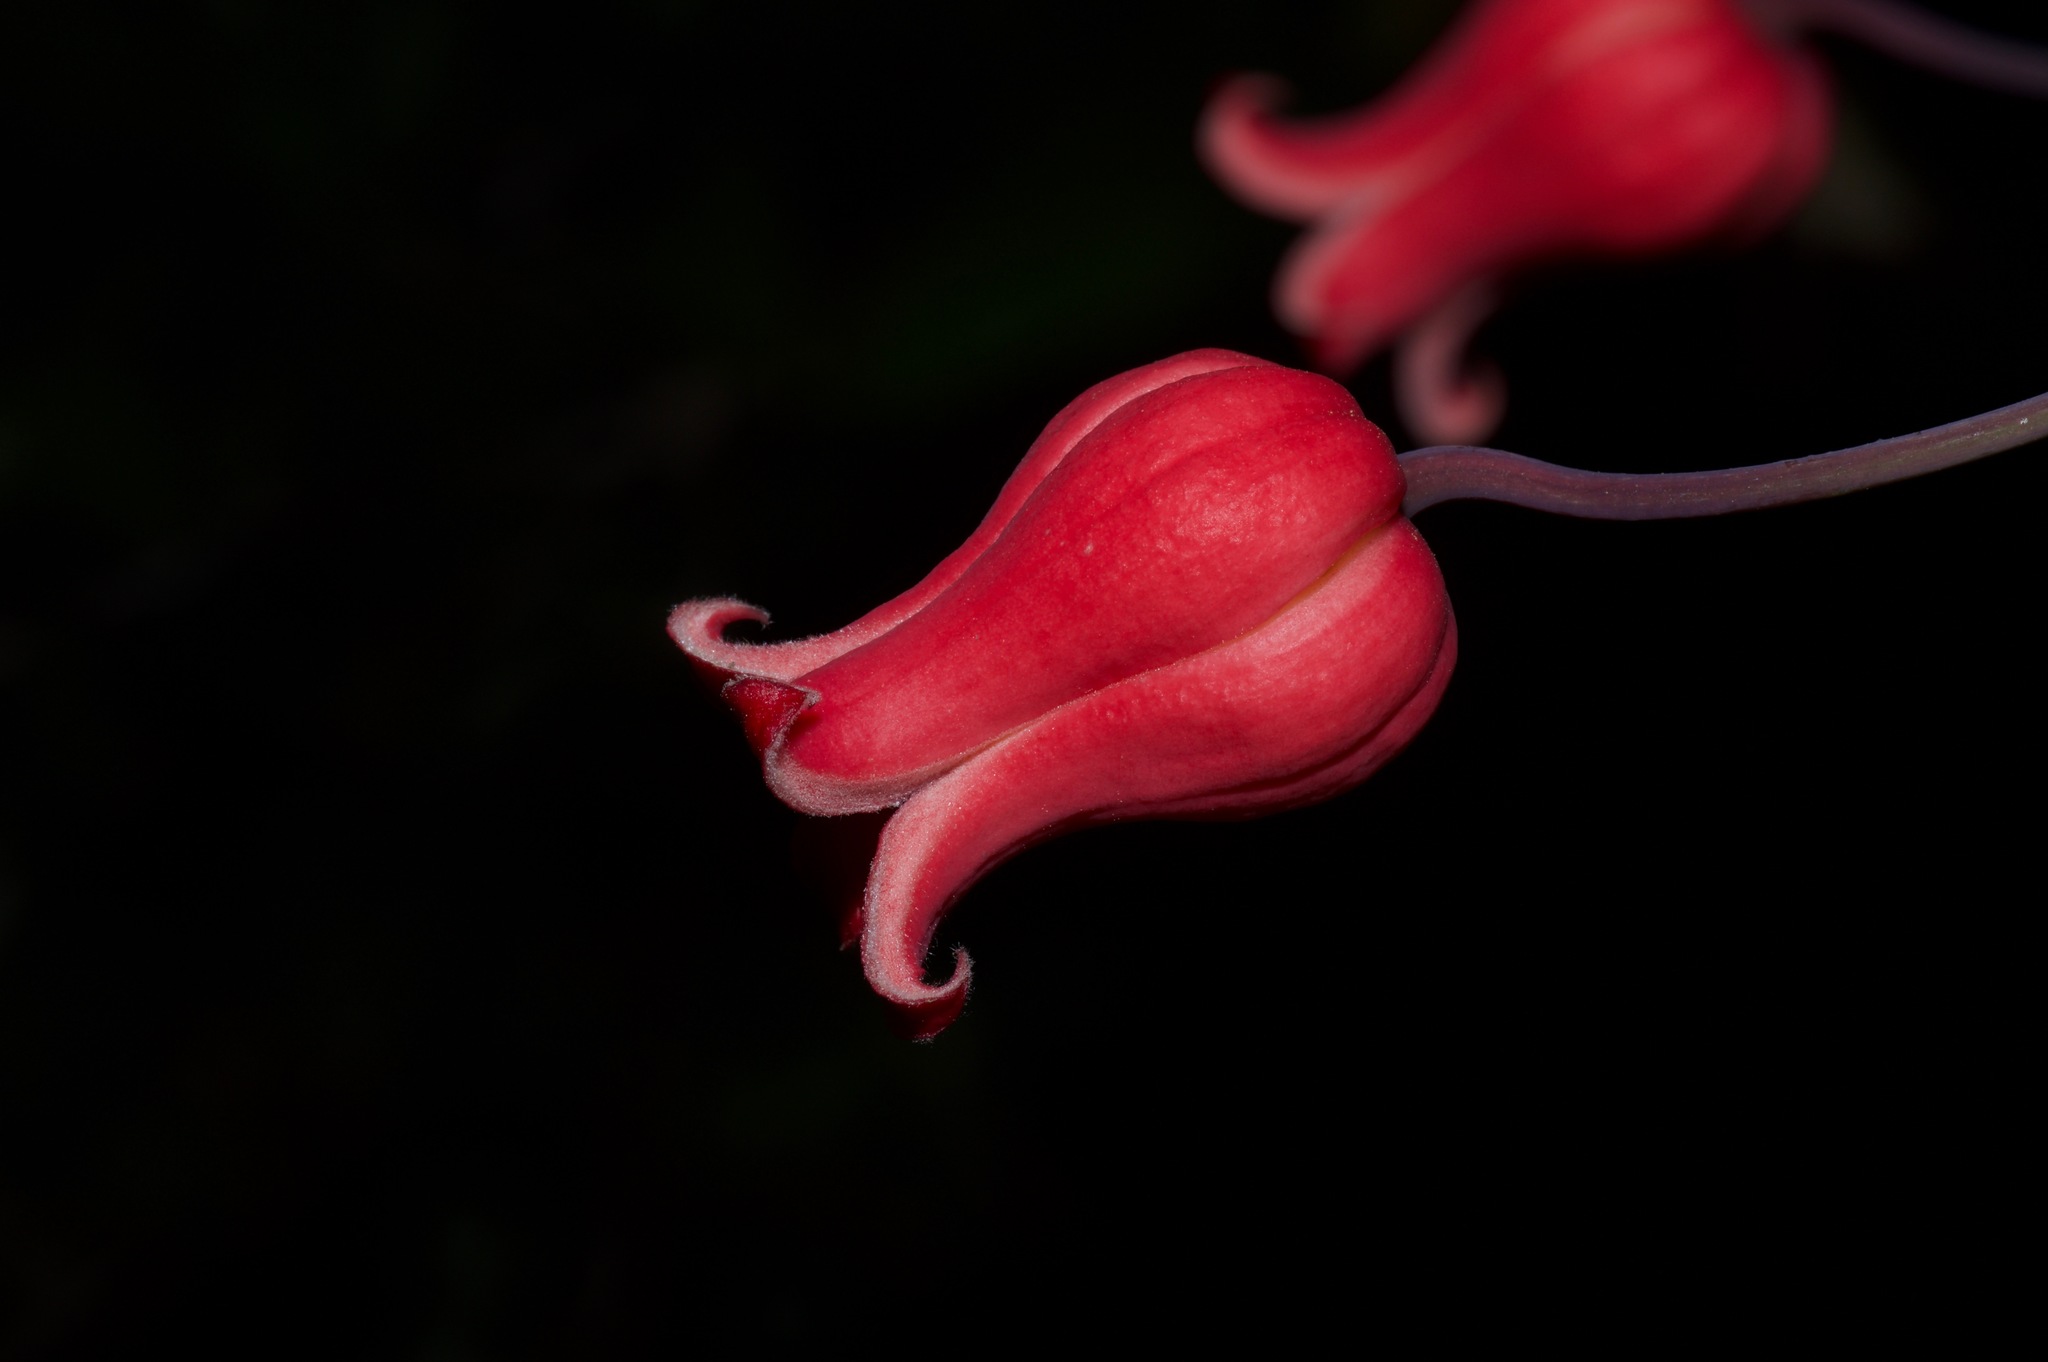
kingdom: Plantae
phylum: Tracheophyta
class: Magnoliopsida
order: Ranunculales
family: Ranunculaceae
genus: Clematis
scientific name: Clematis texensis
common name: Crimson clematis
